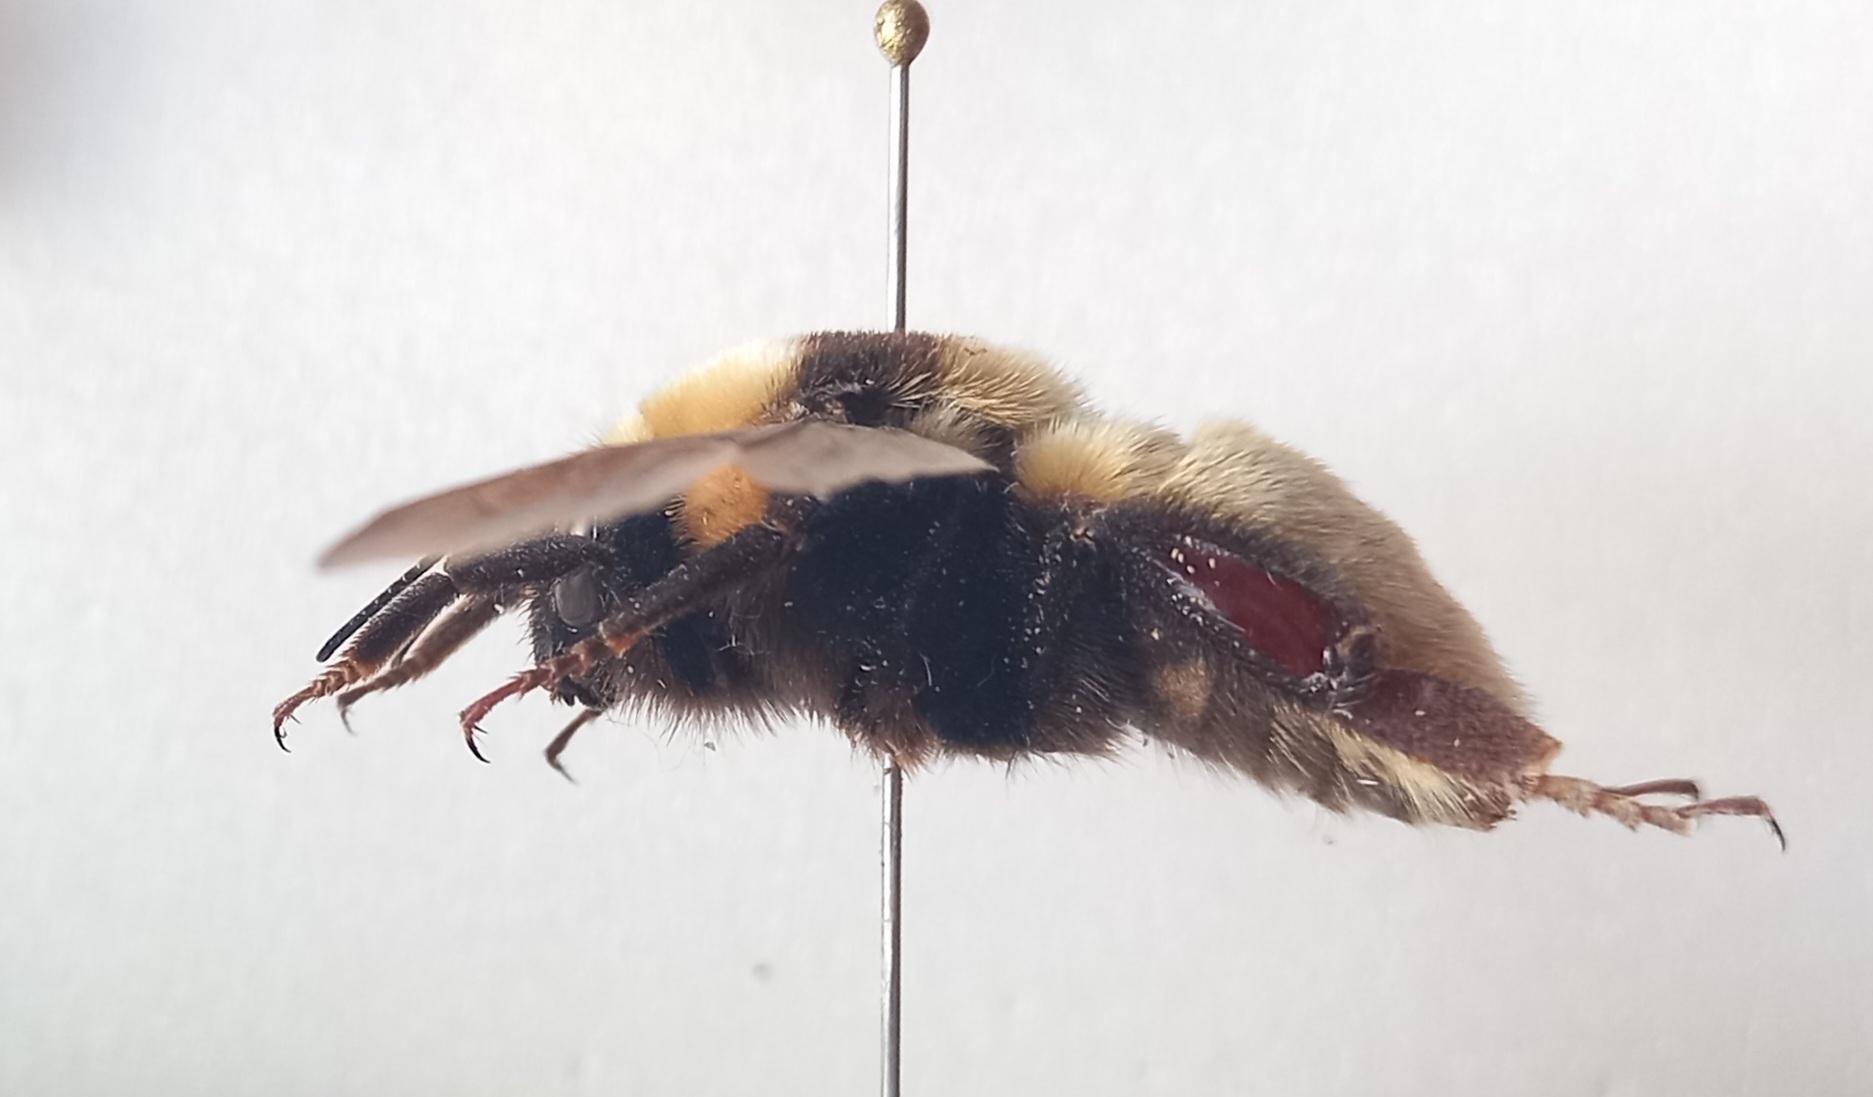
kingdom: Animalia
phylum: Arthropoda
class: Insecta
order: Hymenoptera
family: Apidae
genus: Bombus
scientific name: Bombus fragrans
